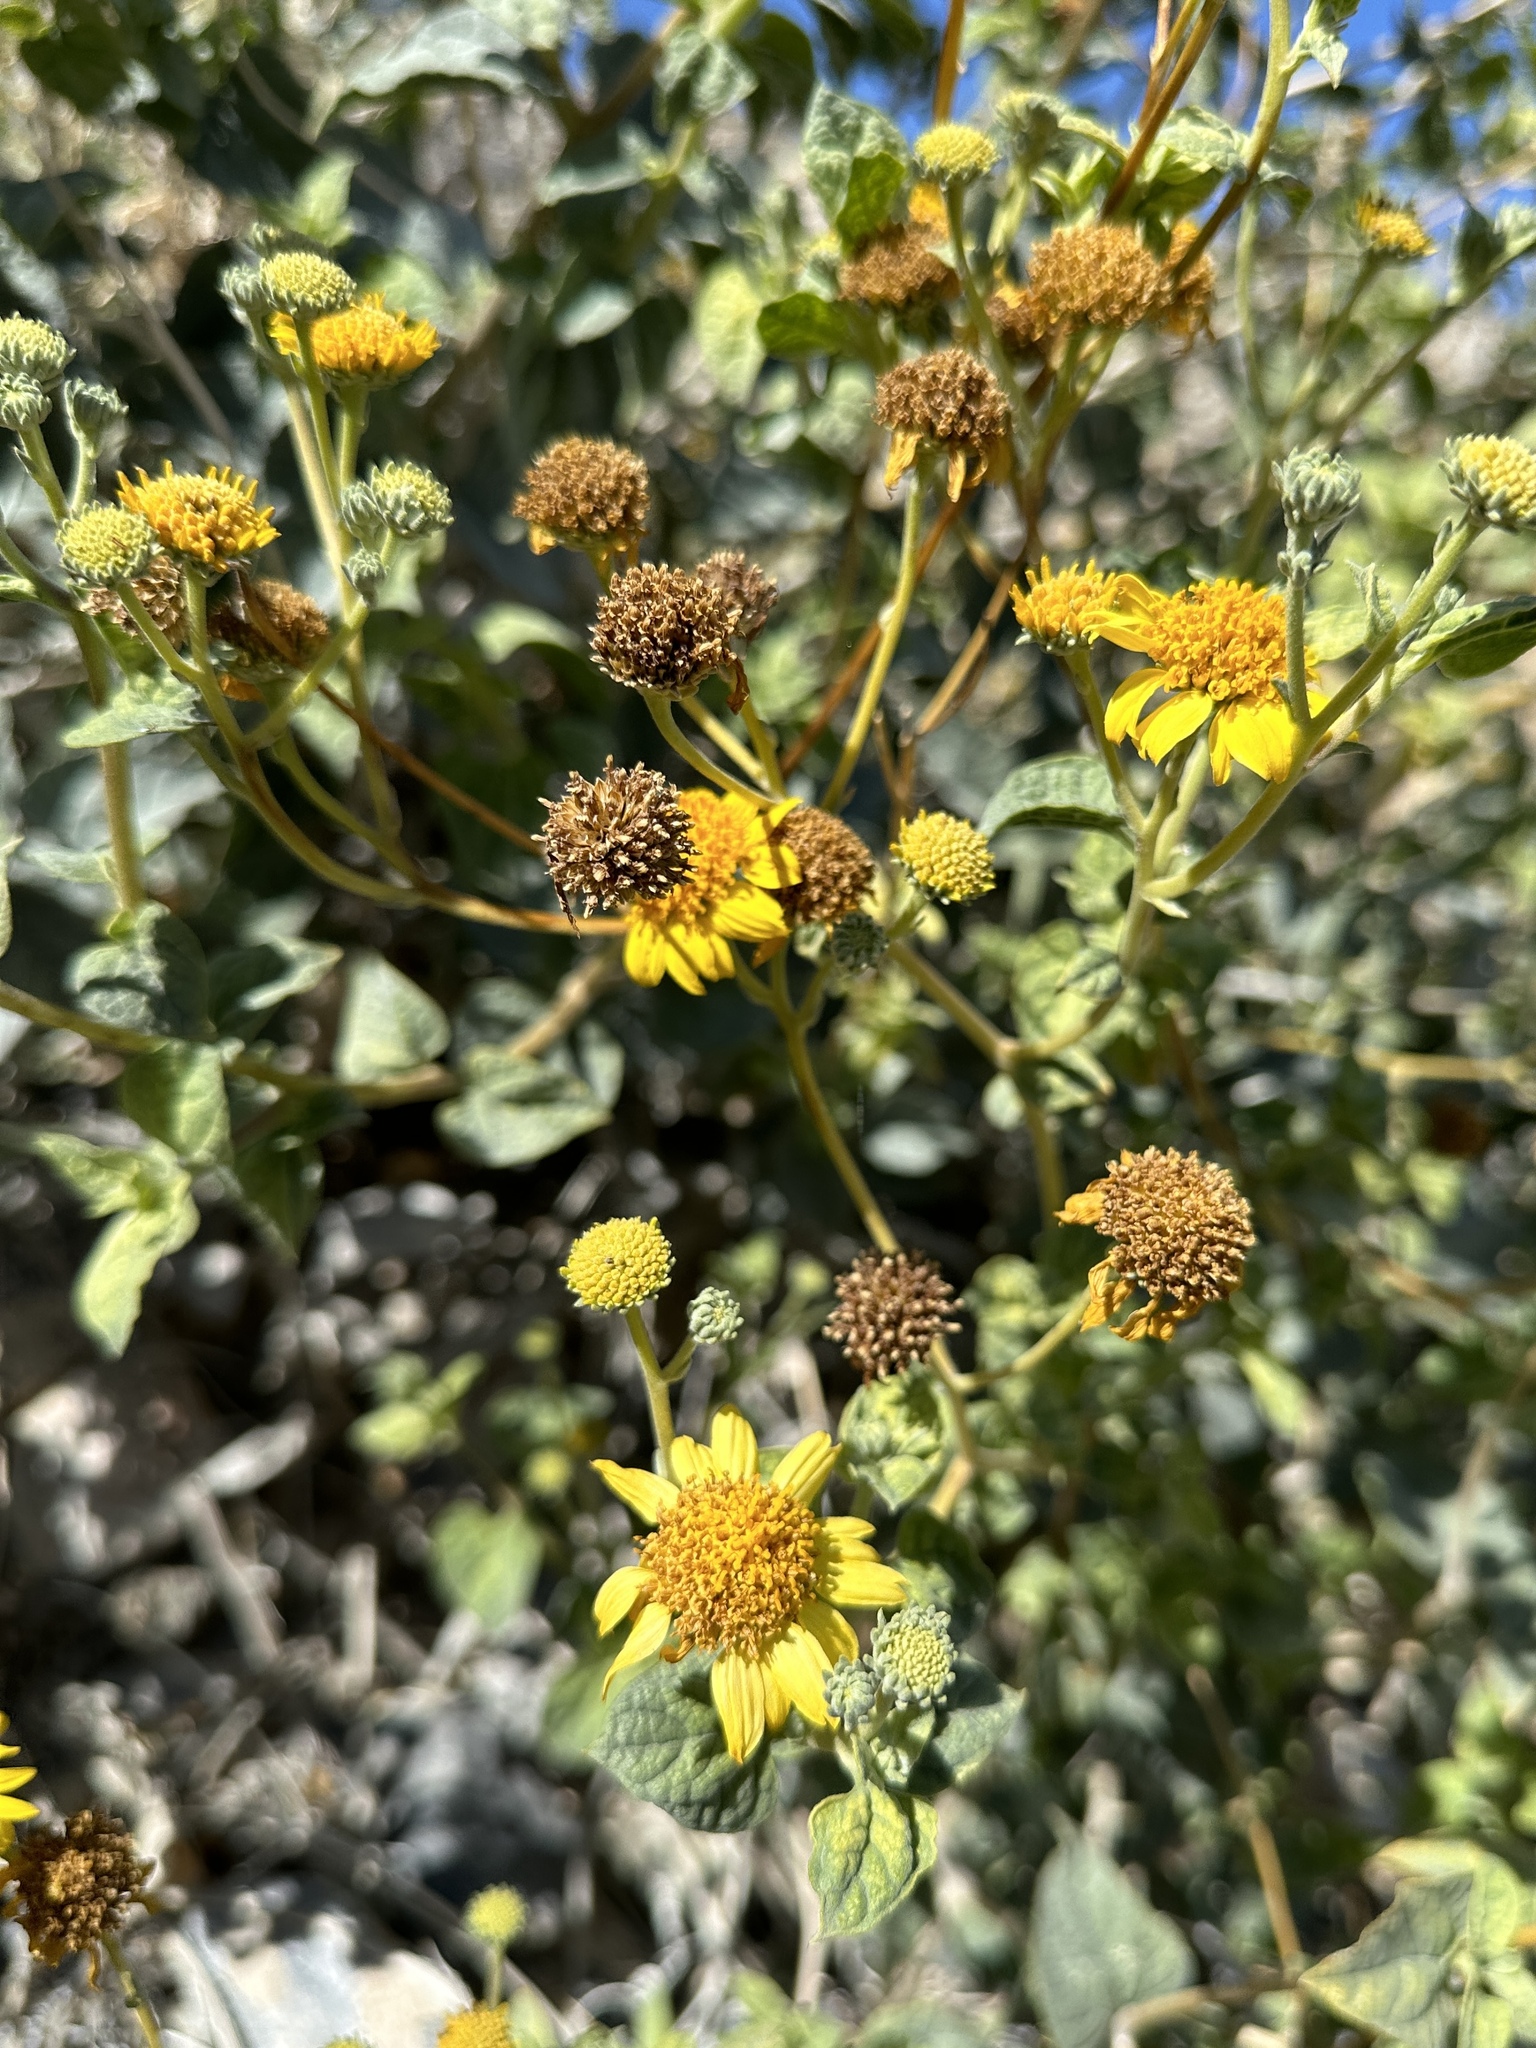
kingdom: Plantae
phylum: Tracheophyta
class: Magnoliopsida
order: Asterales
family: Asteraceae
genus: Bahiopsis
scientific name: Bahiopsis reticulata
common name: Death valley goldeneye
